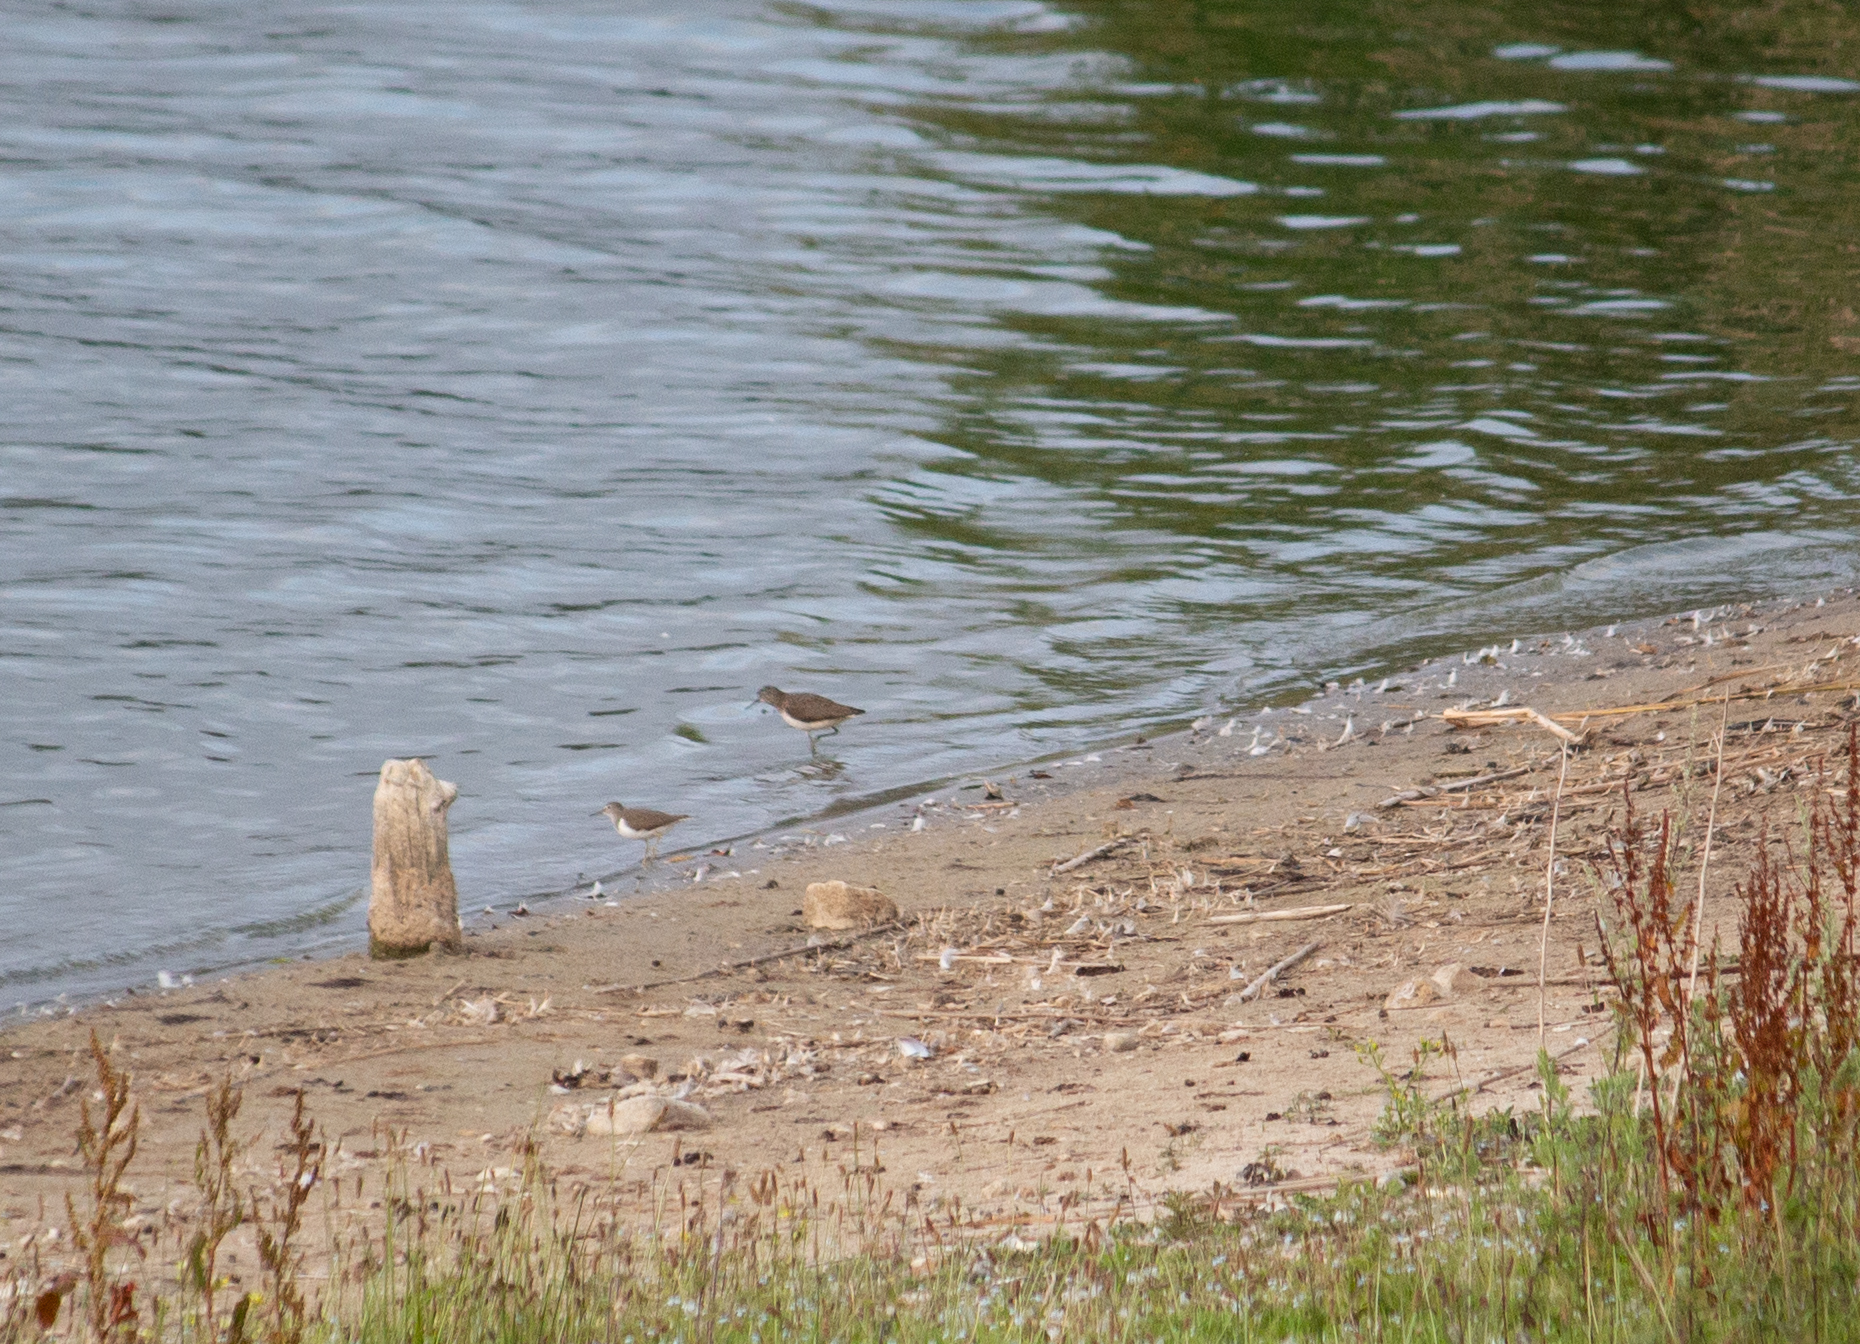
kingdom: Animalia
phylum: Chordata
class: Aves
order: Charadriiformes
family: Scolopacidae
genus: Tringa
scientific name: Tringa ochropus
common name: Green sandpiper
